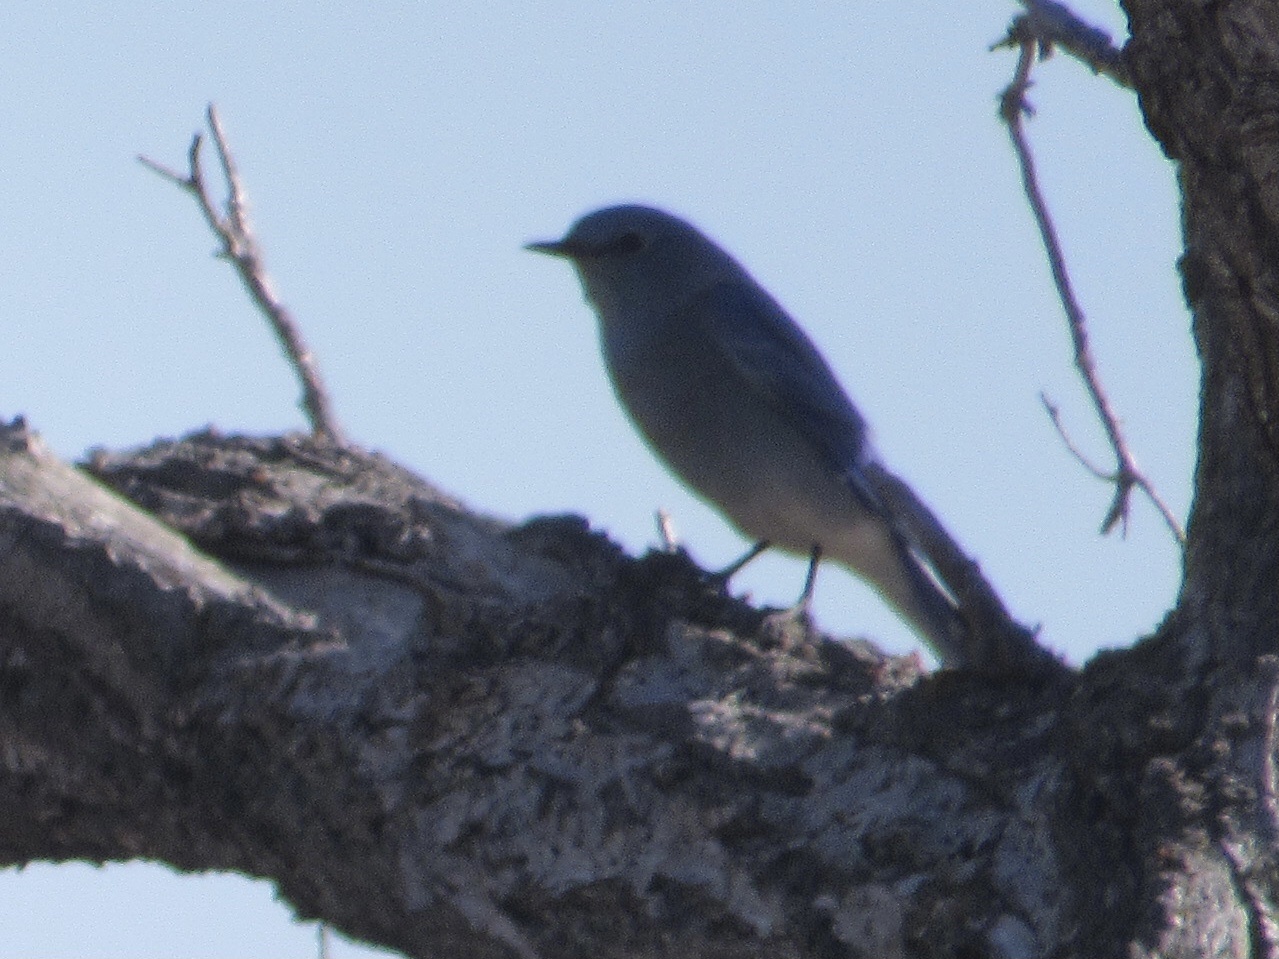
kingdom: Animalia
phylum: Chordata
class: Aves
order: Passeriformes
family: Turdidae
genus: Sialia
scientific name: Sialia sialis
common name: Eastern bluebird
